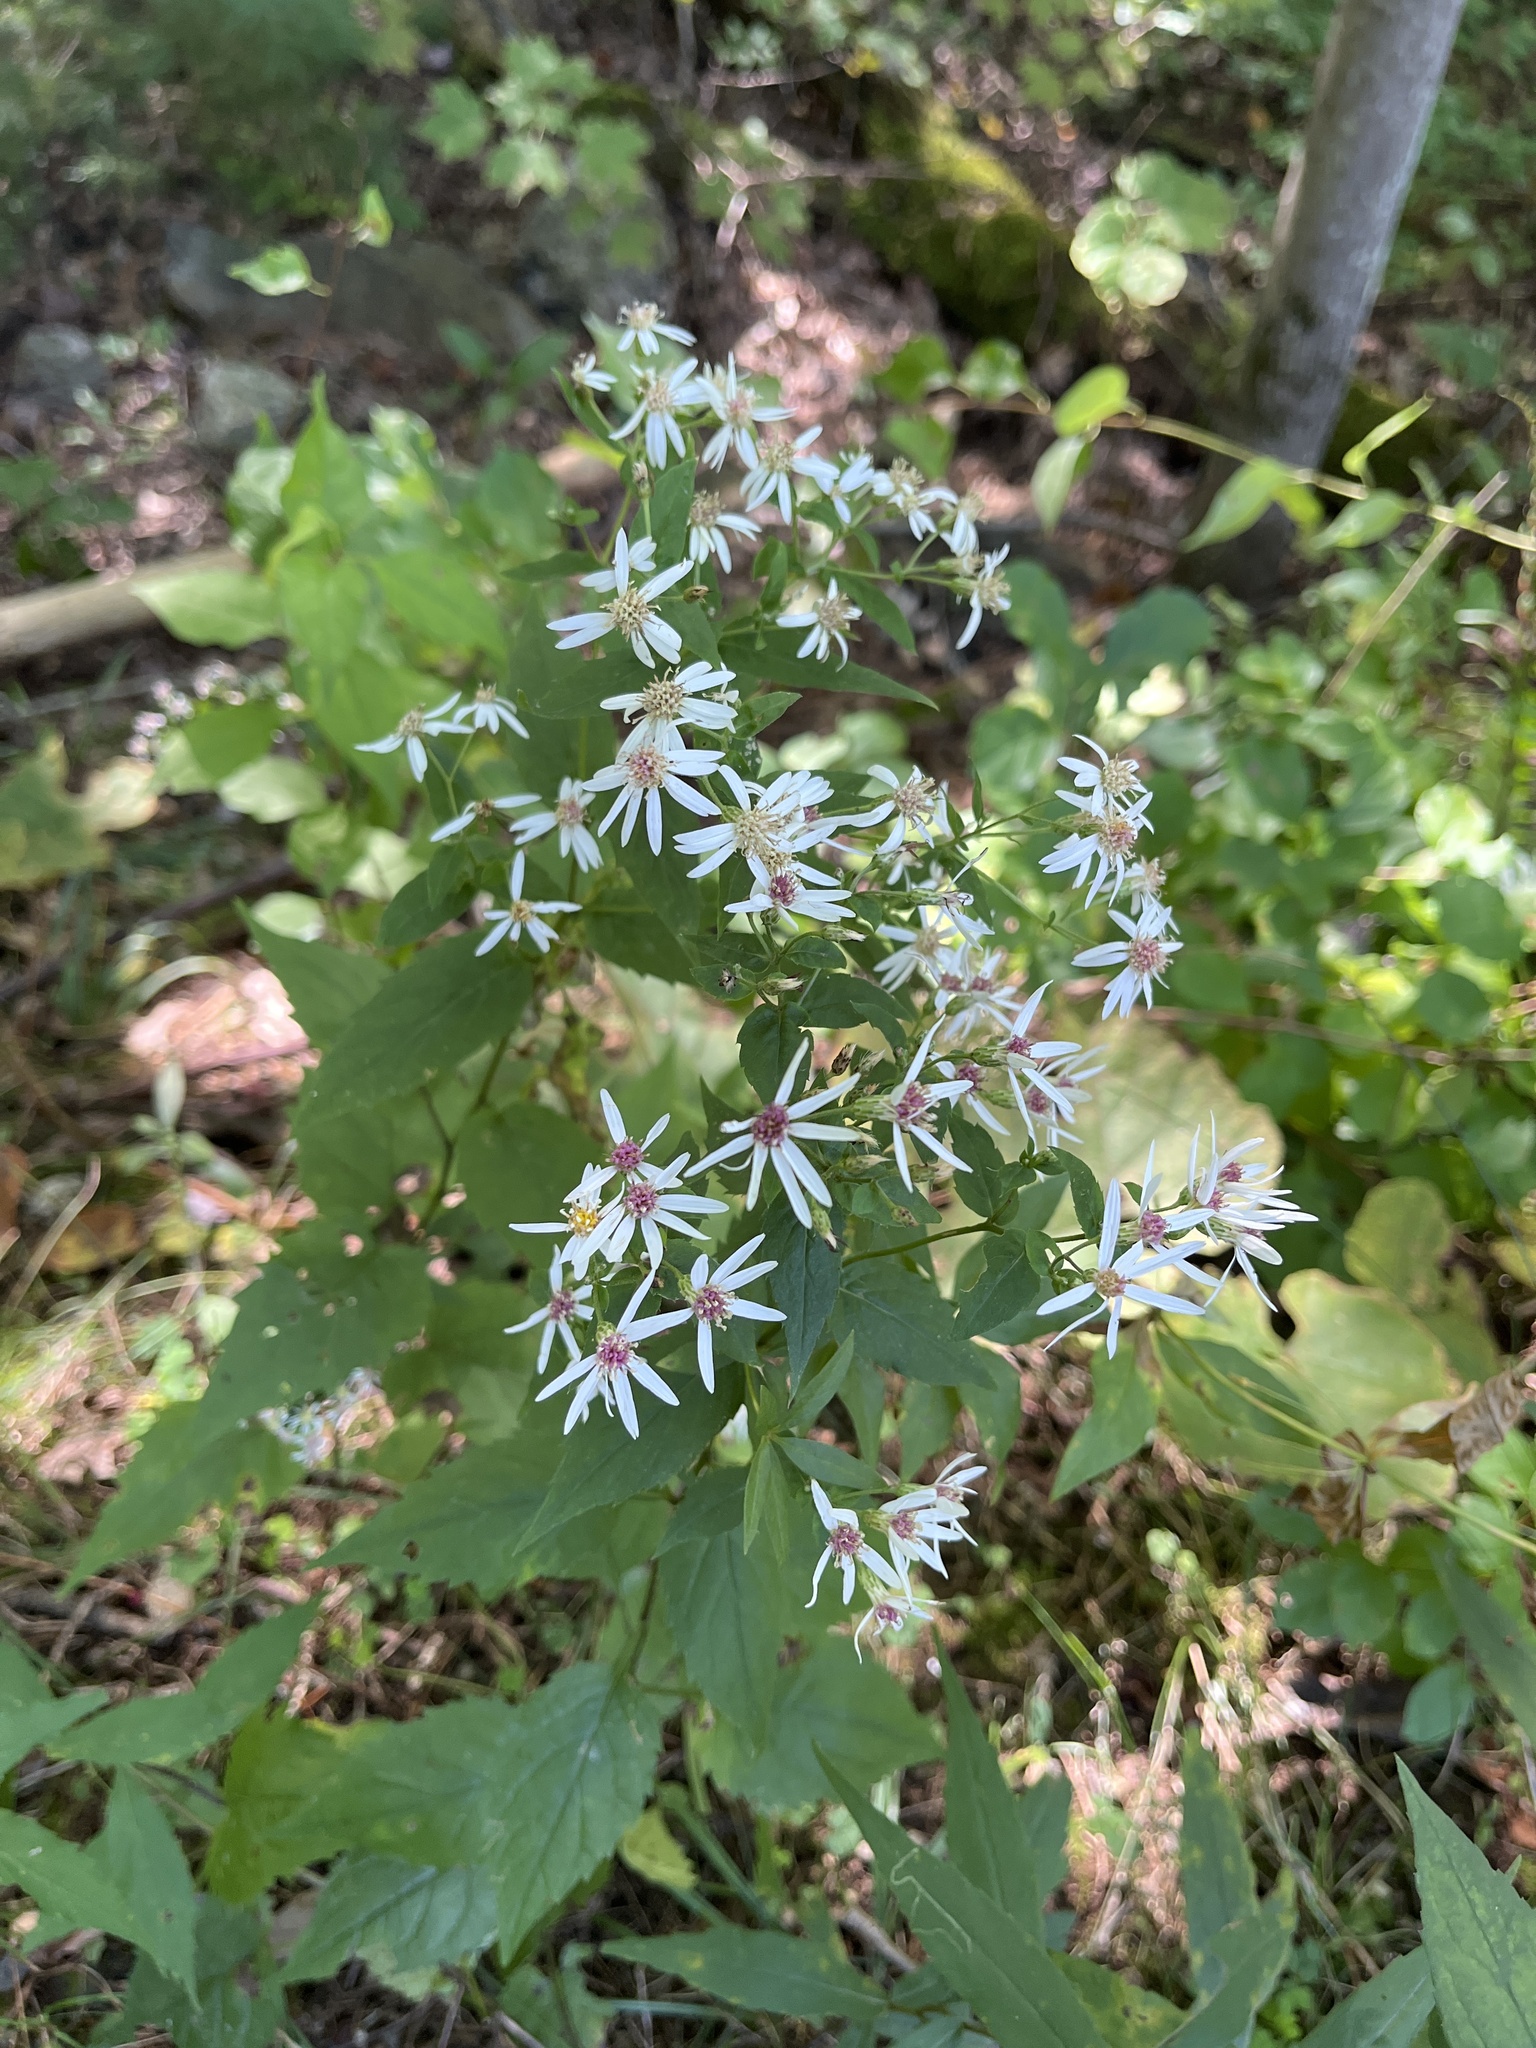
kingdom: Plantae
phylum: Tracheophyta
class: Magnoliopsida
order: Asterales
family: Asteraceae
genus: Eurybia
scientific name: Eurybia divaricata
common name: White wood aster
